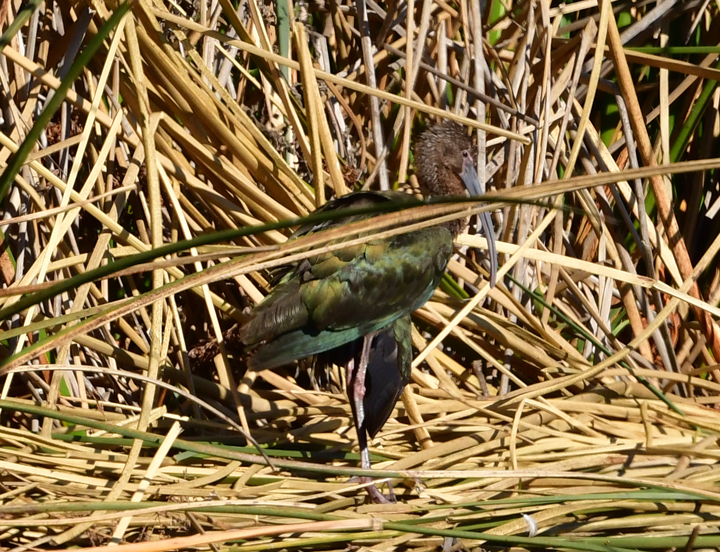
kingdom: Animalia
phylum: Chordata
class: Aves
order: Pelecaniformes
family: Threskiornithidae
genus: Plegadis
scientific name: Plegadis chihi
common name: White-faced ibis
